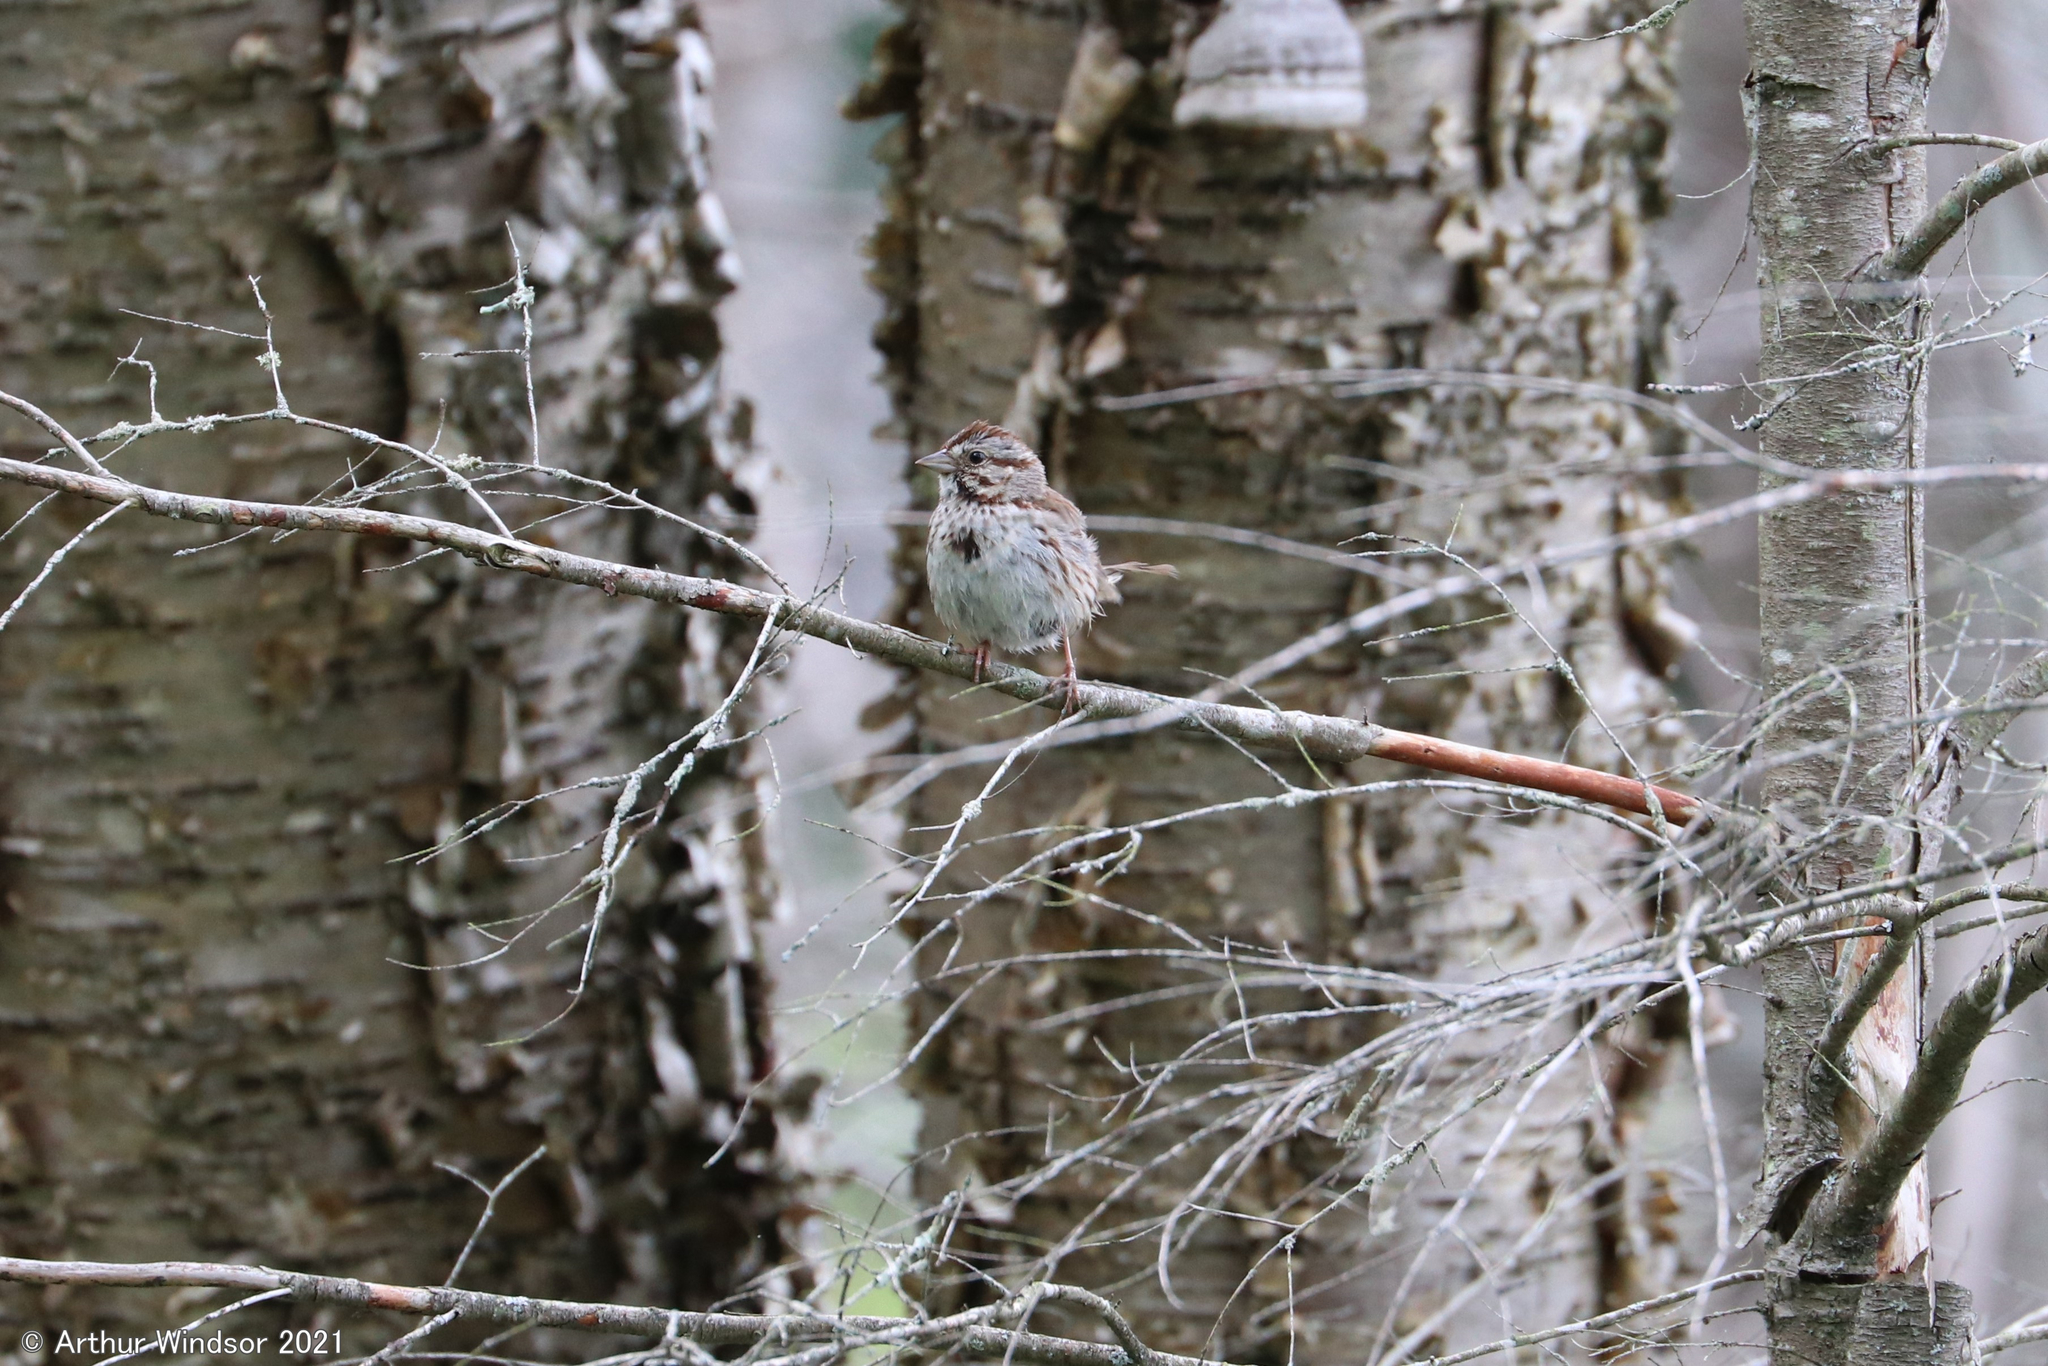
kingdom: Animalia
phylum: Chordata
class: Aves
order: Passeriformes
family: Passerellidae
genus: Melospiza
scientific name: Melospiza melodia
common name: Song sparrow
